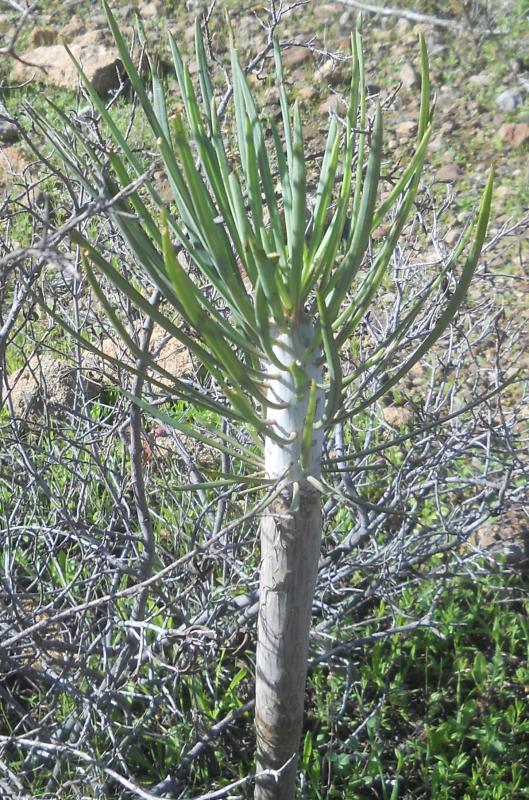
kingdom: Plantae
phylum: Tracheophyta
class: Magnoliopsida
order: Asterales
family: Asteraceae
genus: Kleinia
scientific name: Kleinia neriifolia
